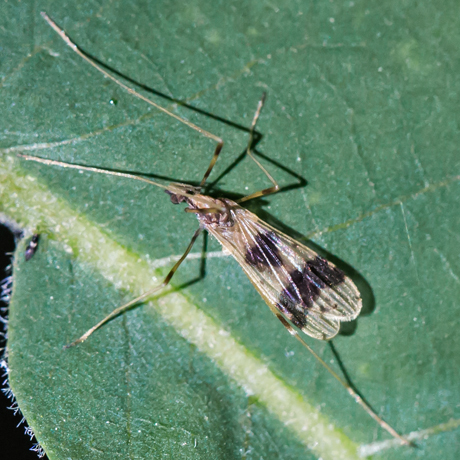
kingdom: Animalia
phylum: Arthropoda
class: Insecta
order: Diptera
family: Limoniidae
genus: Ilisia
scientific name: Ilisia venusta
